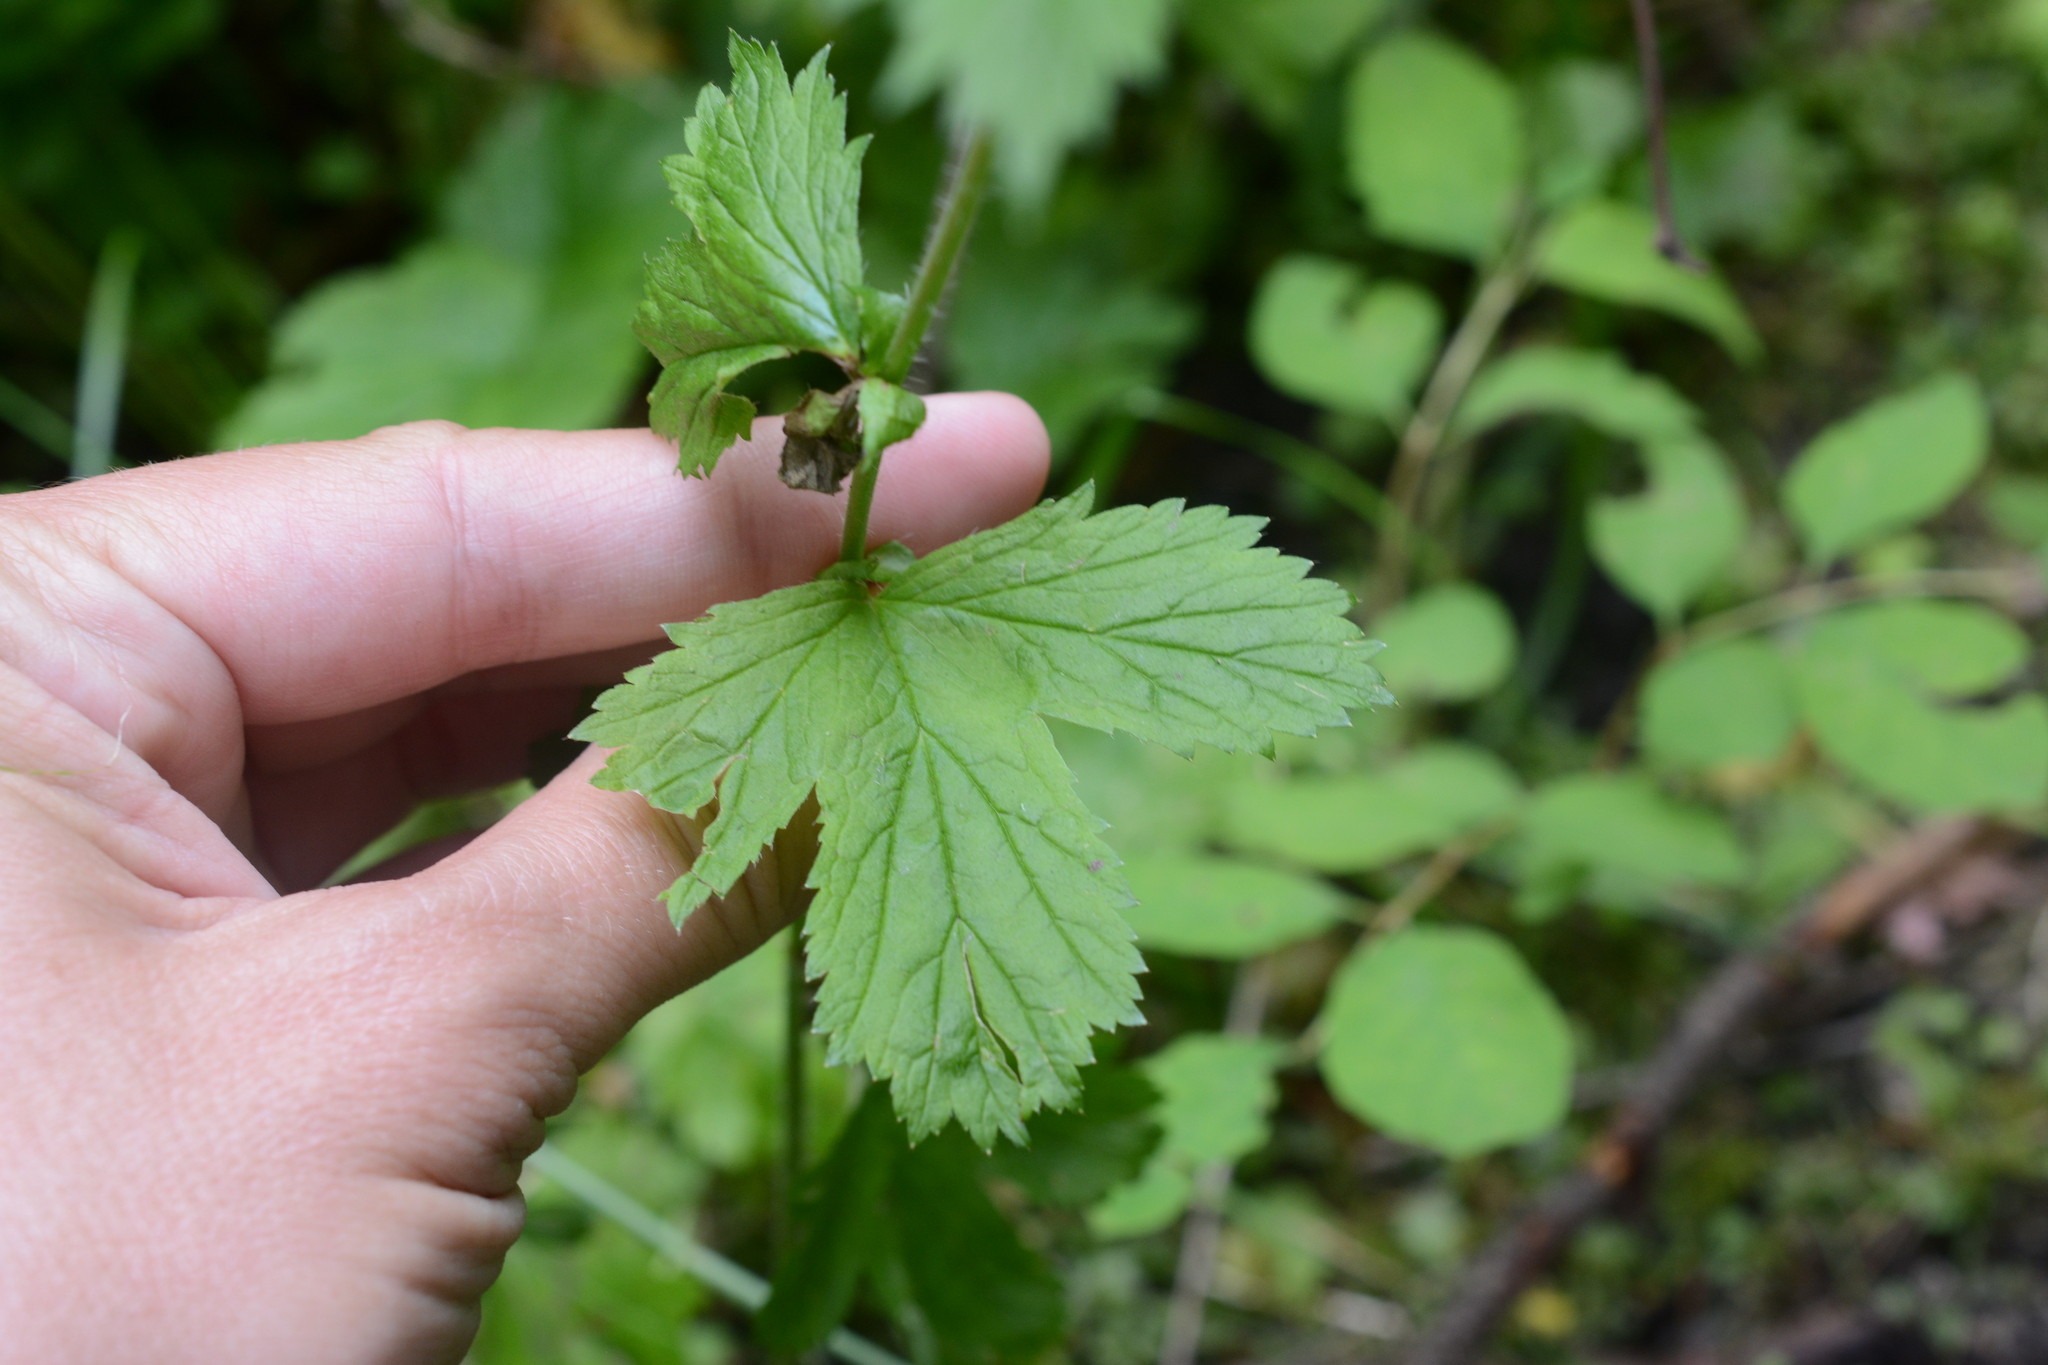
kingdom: Plantae
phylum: Tracheophyta
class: Magnoliopsida
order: Rosales
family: Rosaceae
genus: Geum
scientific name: Geum macrophyllum
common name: Large-leaved avens
